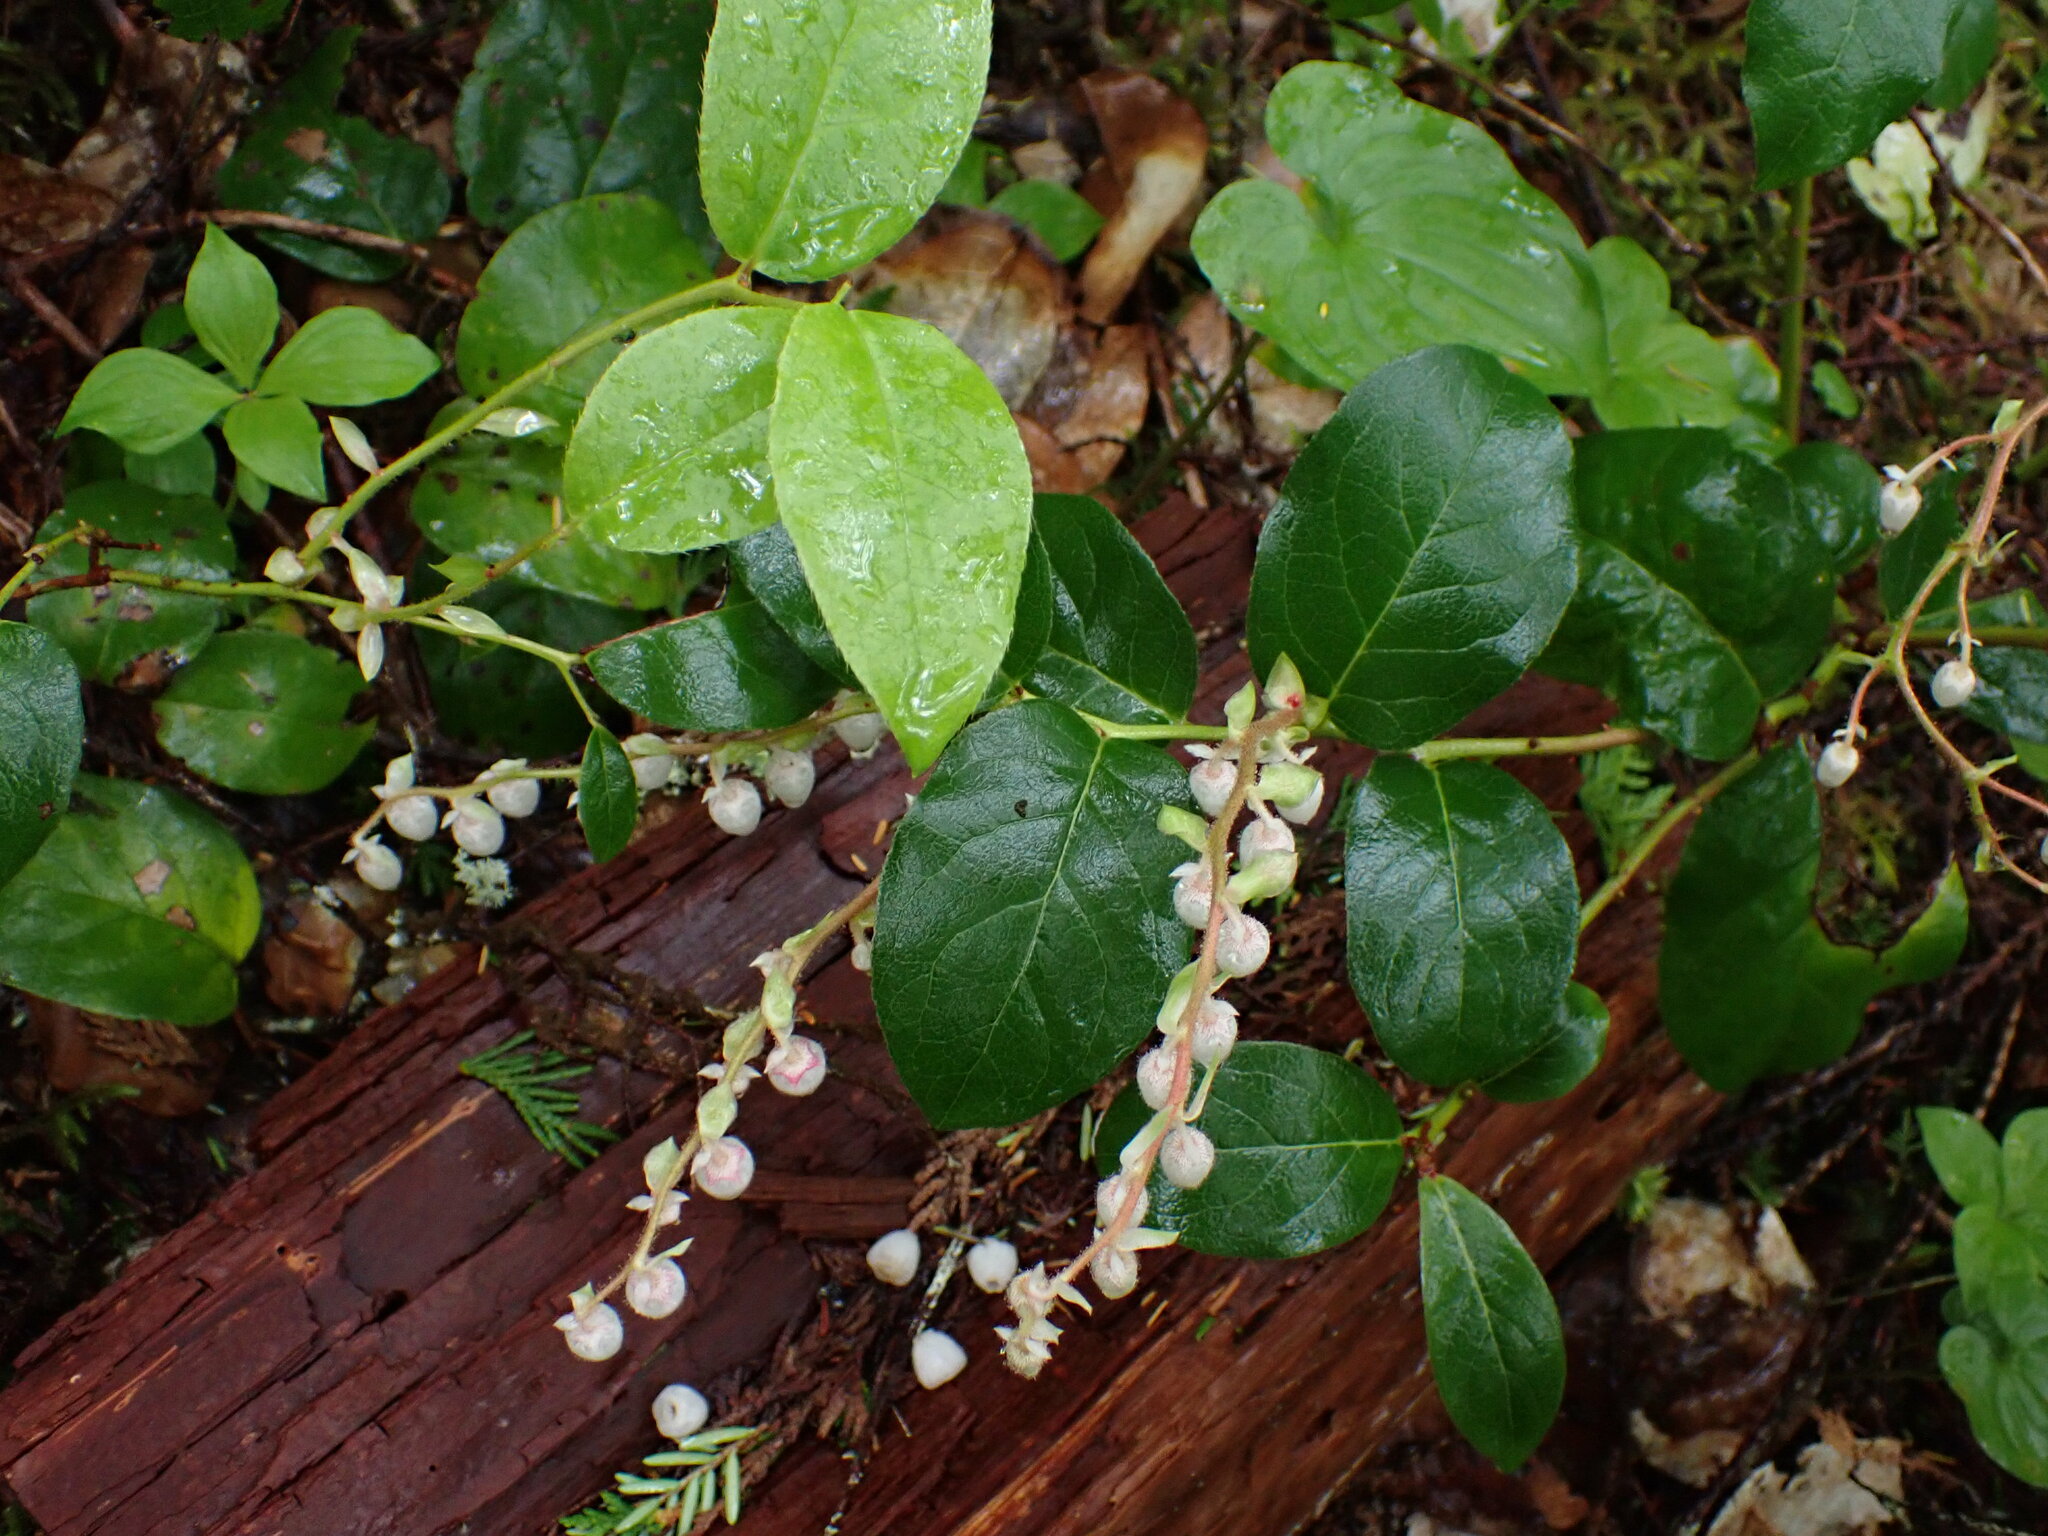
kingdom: Plantae
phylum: Tracheophyta
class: Magnoliopsida
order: Ericales
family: Ericaceae
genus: Gaultheria
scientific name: Gaultheria shallon
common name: Shallon
